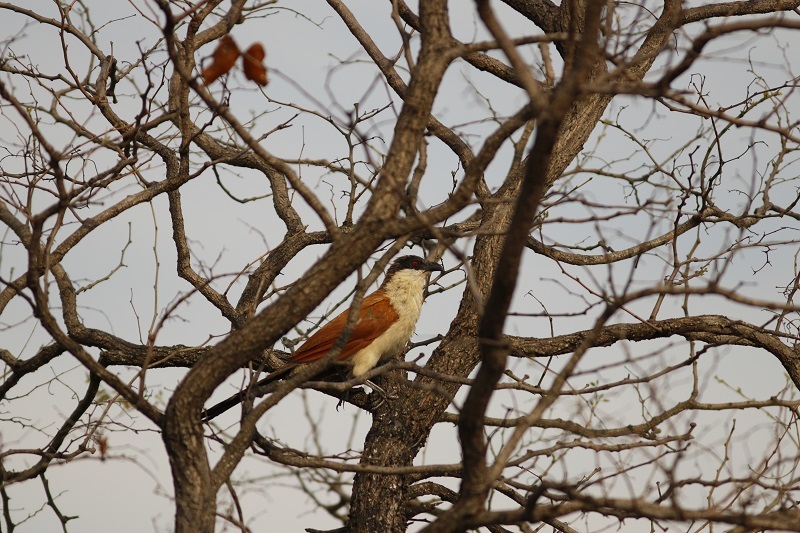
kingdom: Animalia
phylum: Chordata
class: Aves
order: Cuculiformes
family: Cuculidae
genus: Centropus
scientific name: Centropus superciliosus
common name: White-browed coucal
